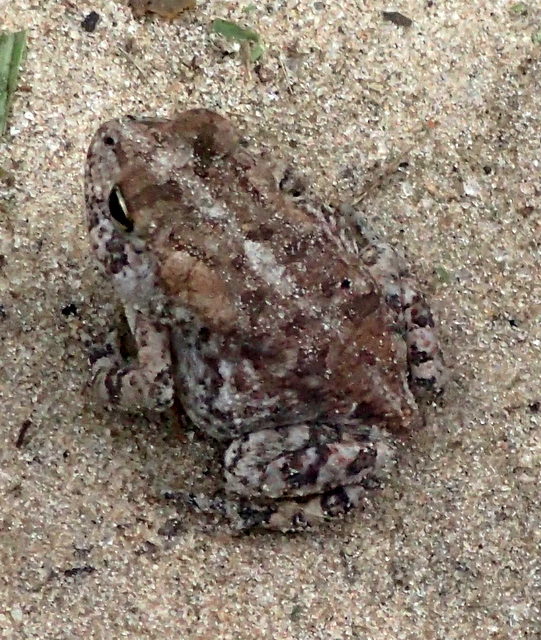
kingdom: Animalia
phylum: Chordata
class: Amphibia
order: Anura
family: Bufonidae
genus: Anaxyrus
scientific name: Anaxyrus
